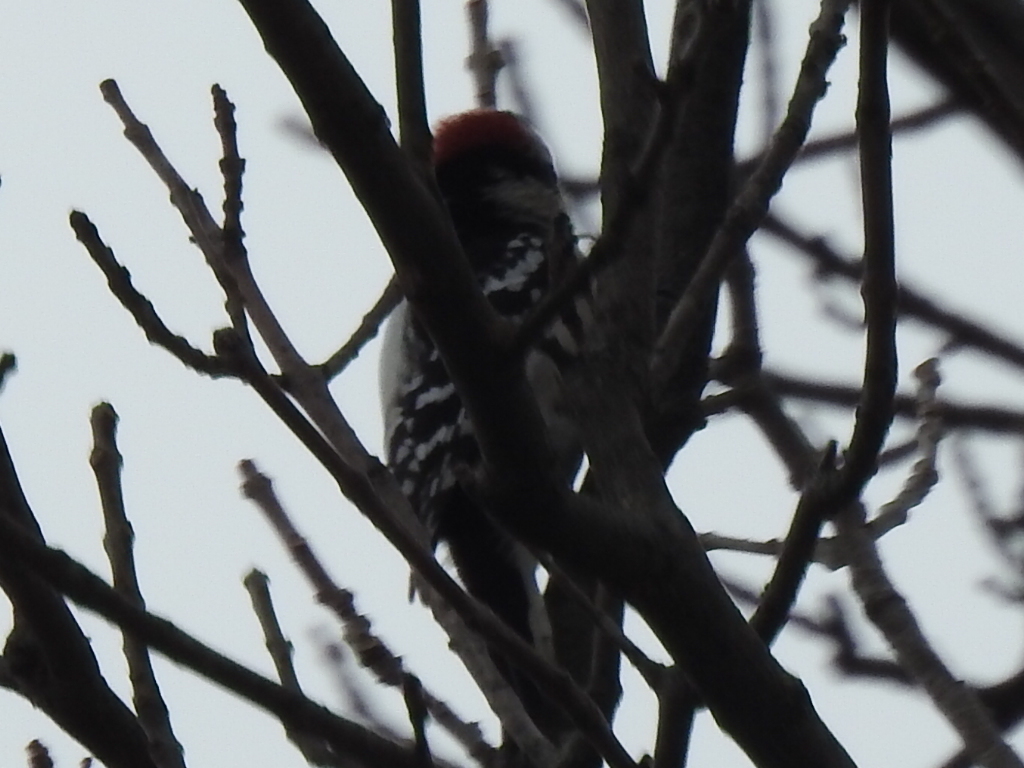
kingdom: Animalia
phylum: Chordata
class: Aves
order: Piciformes
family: Picidae
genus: Dryobates
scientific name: Dryobates pubescens
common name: Downy woodpecker
